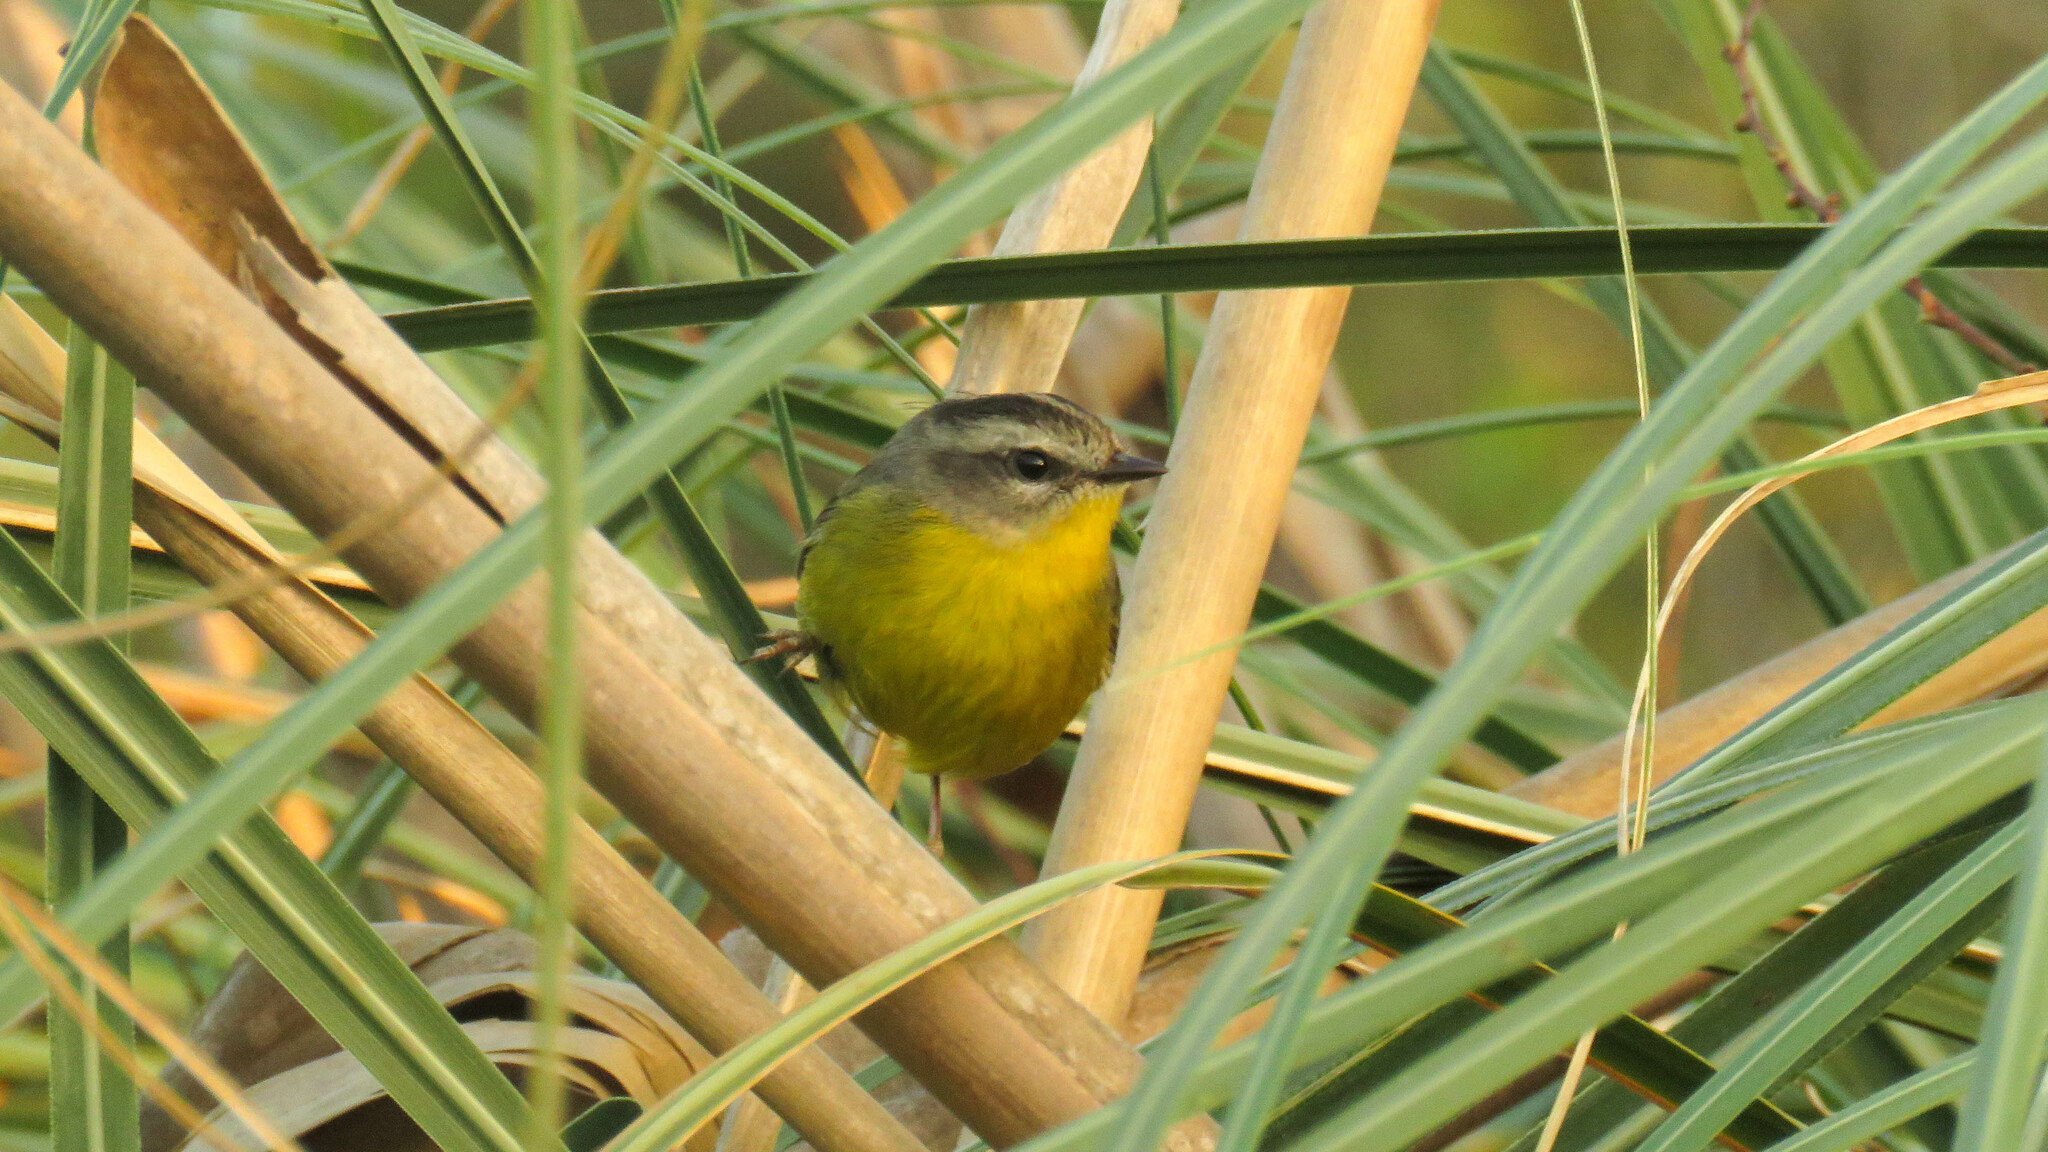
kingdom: Animalia
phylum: Chordata
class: Aves
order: Passeriformes
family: Parulidae
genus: Basileuterus
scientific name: Basileuterus culicivorus
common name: Golden-crowned warbler
